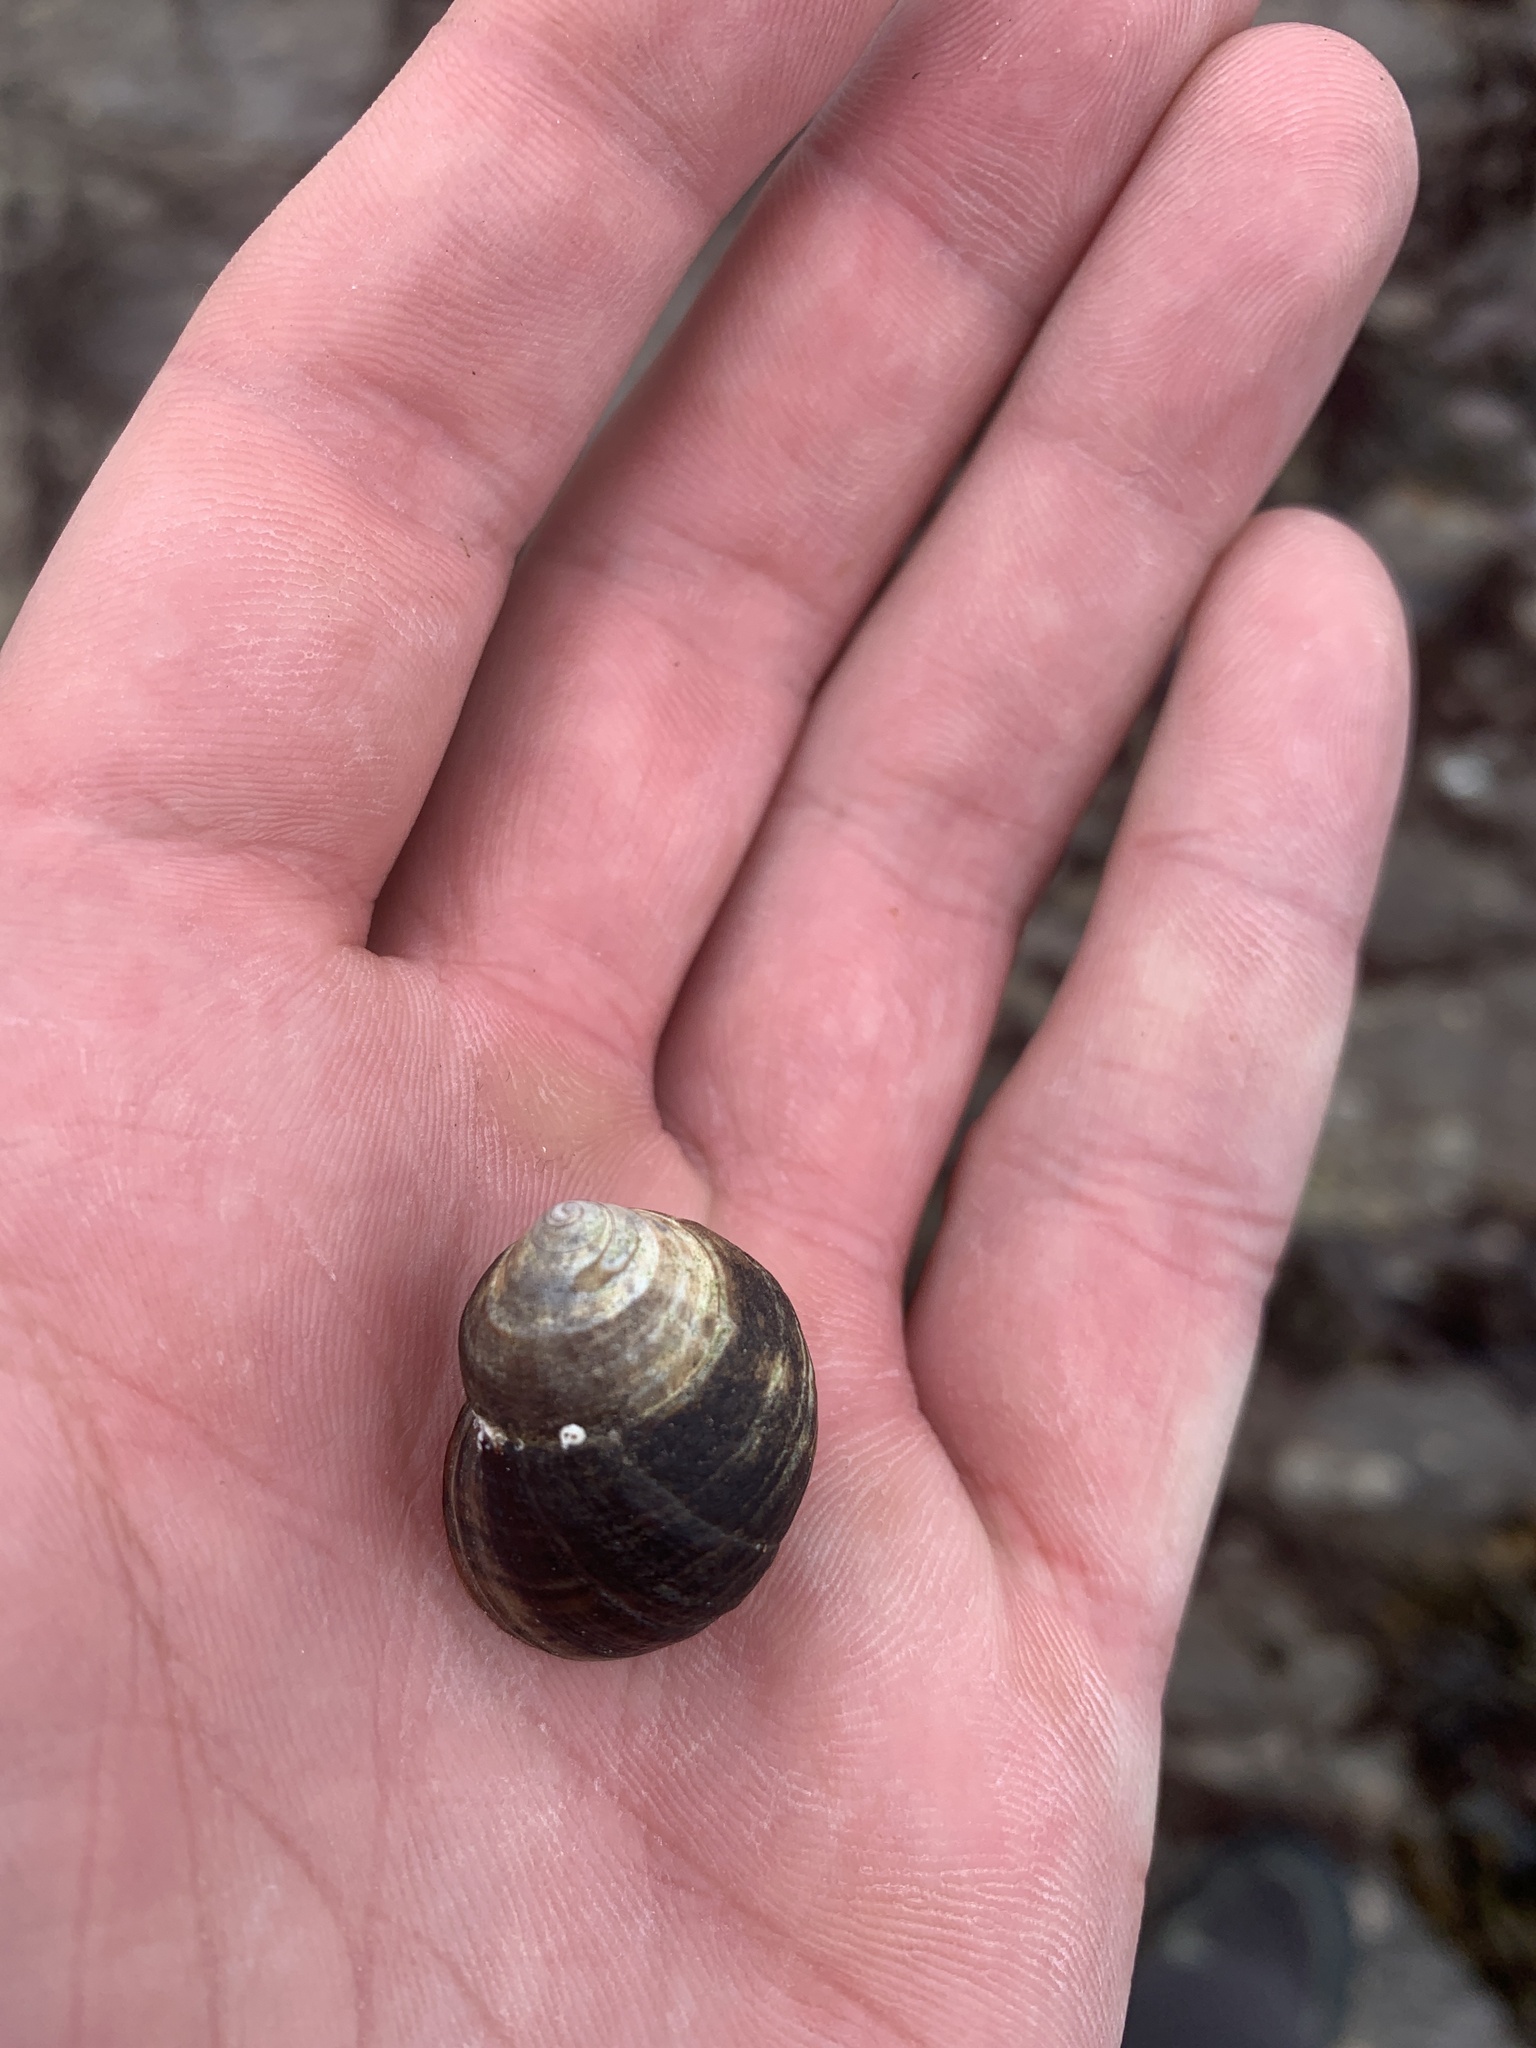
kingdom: Animalia
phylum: Mollusca
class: Gastropoda
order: Littorinimorpha
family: Littorinidae
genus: Littorina
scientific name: Littorina littorea
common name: Common periwinkle
